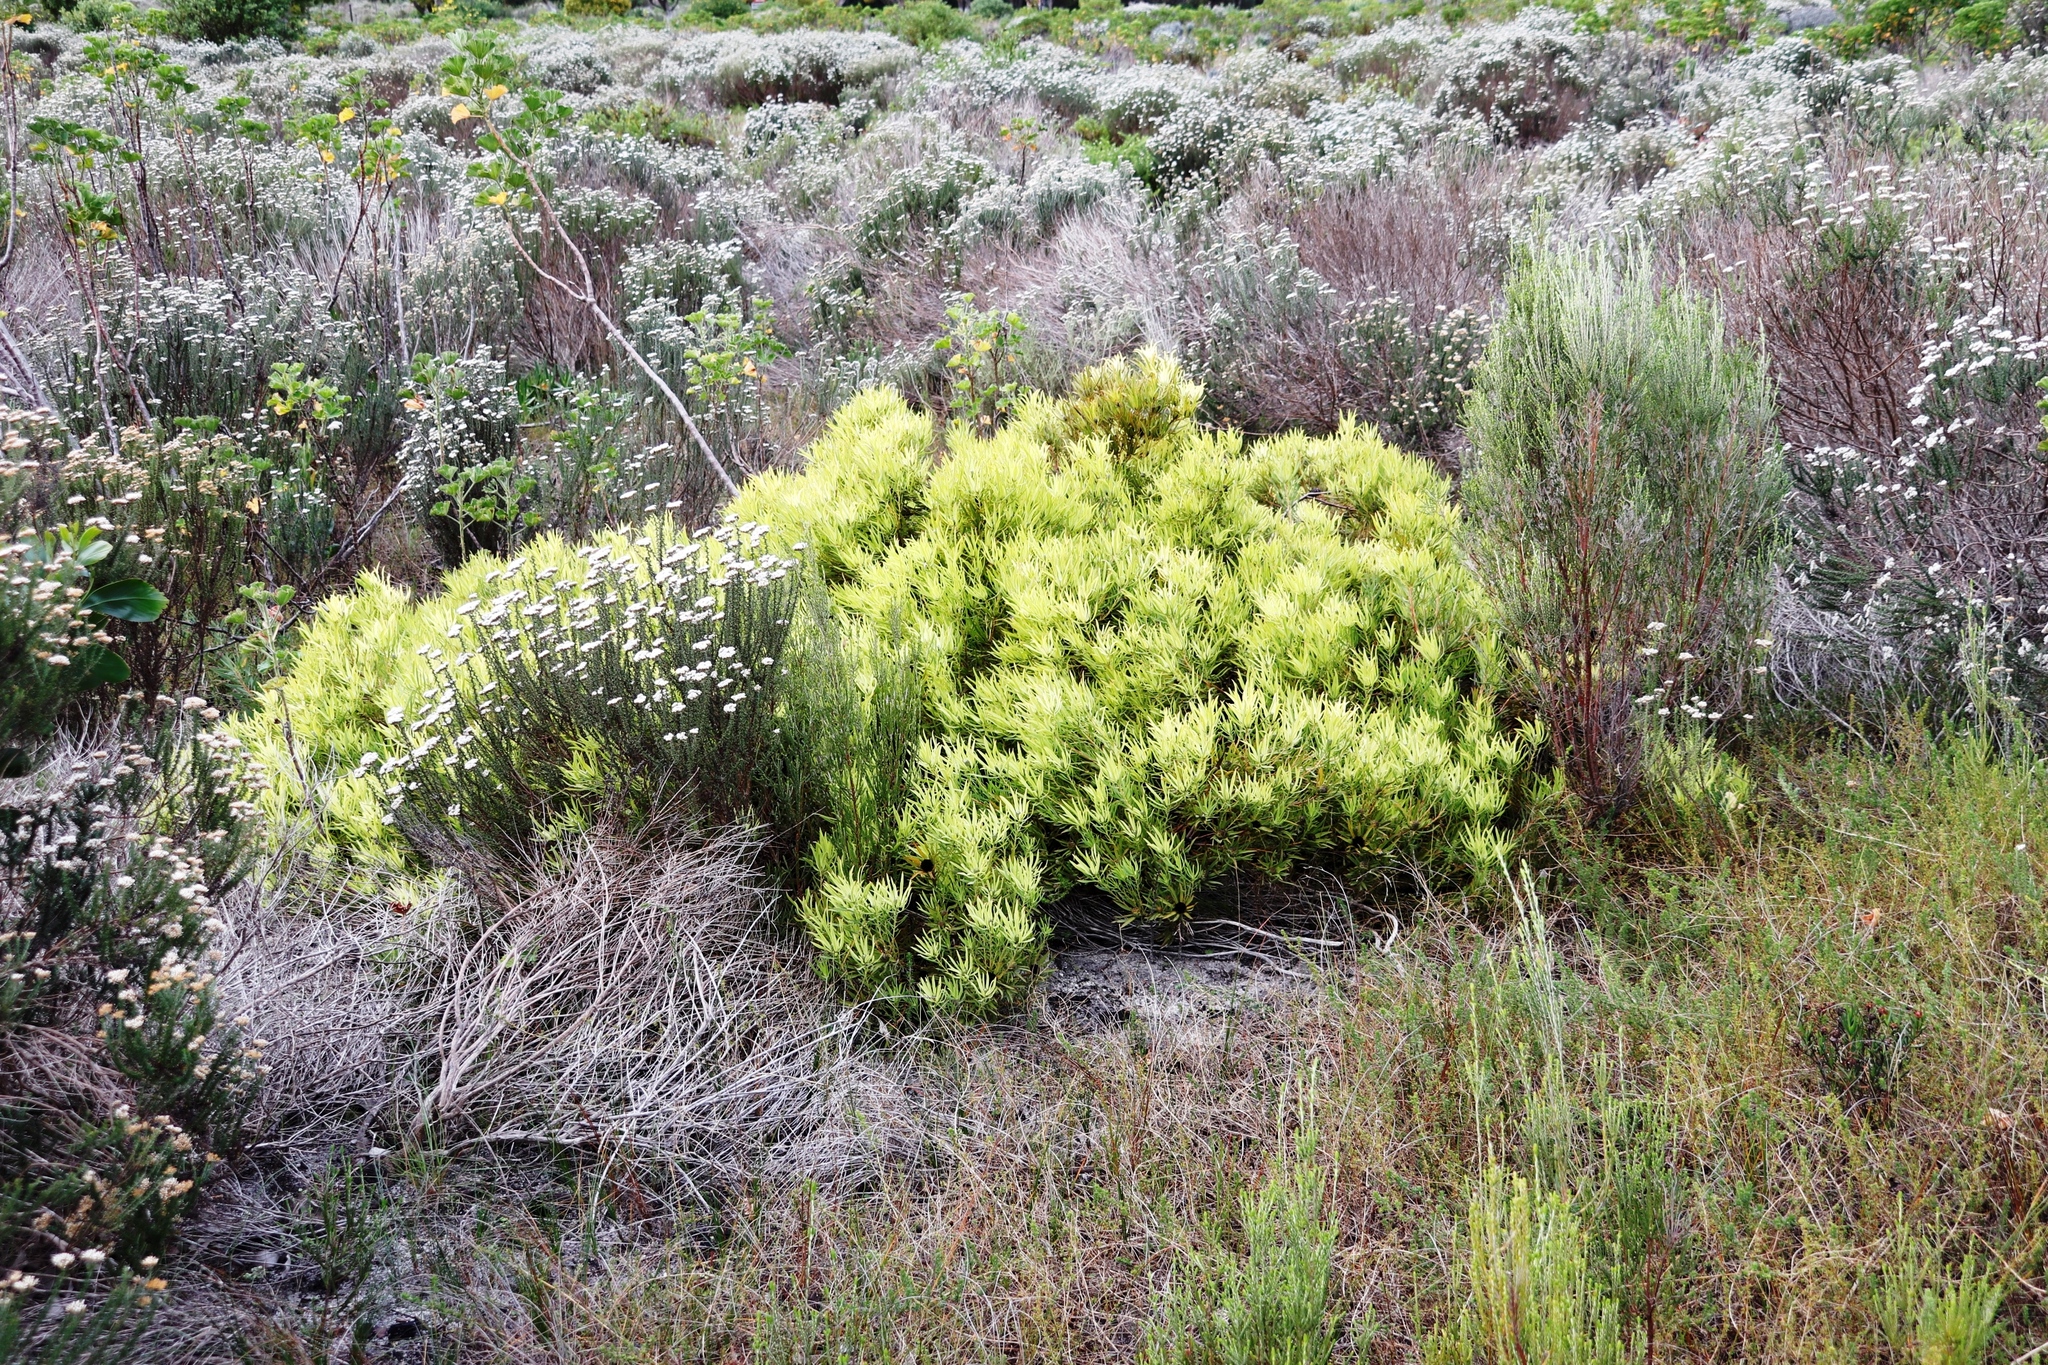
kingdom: Plantae
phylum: Tracheophyta
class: Magnoliopsida
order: Proteales
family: Proteaceae
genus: Leucadendron
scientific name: Leucadendron salignum
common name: Common sunshine conebush
